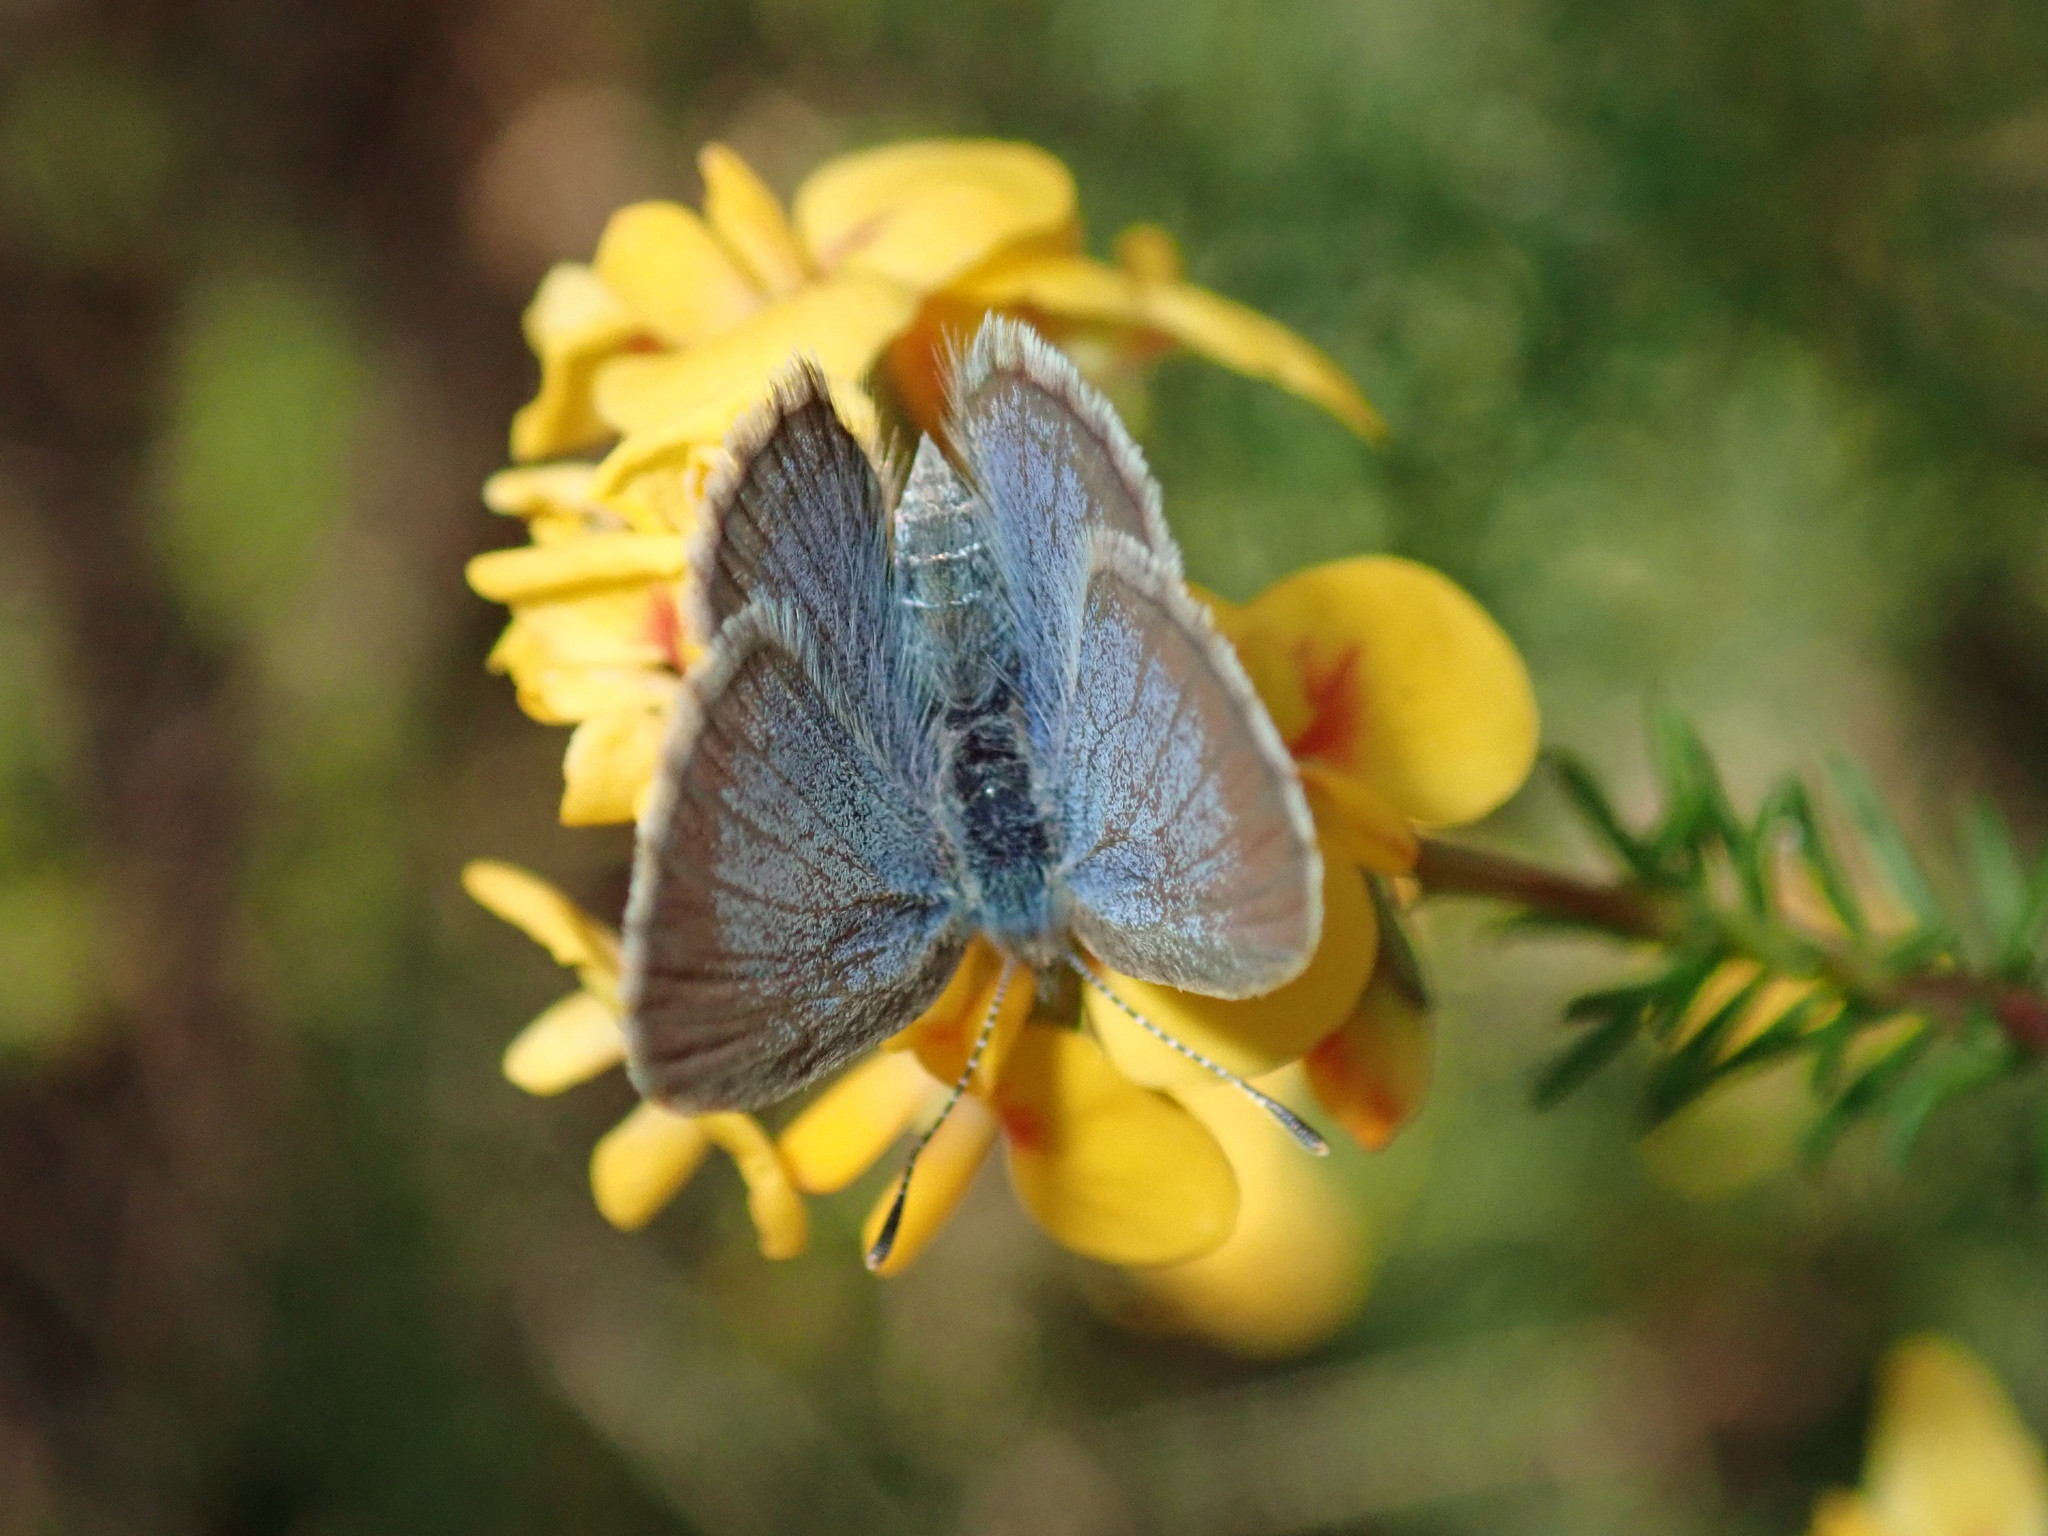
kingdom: Animalia
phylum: Arthropoda
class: Insecta
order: Lepidoptera
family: Lycaenidae
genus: Zizina
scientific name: Zizina labradus
